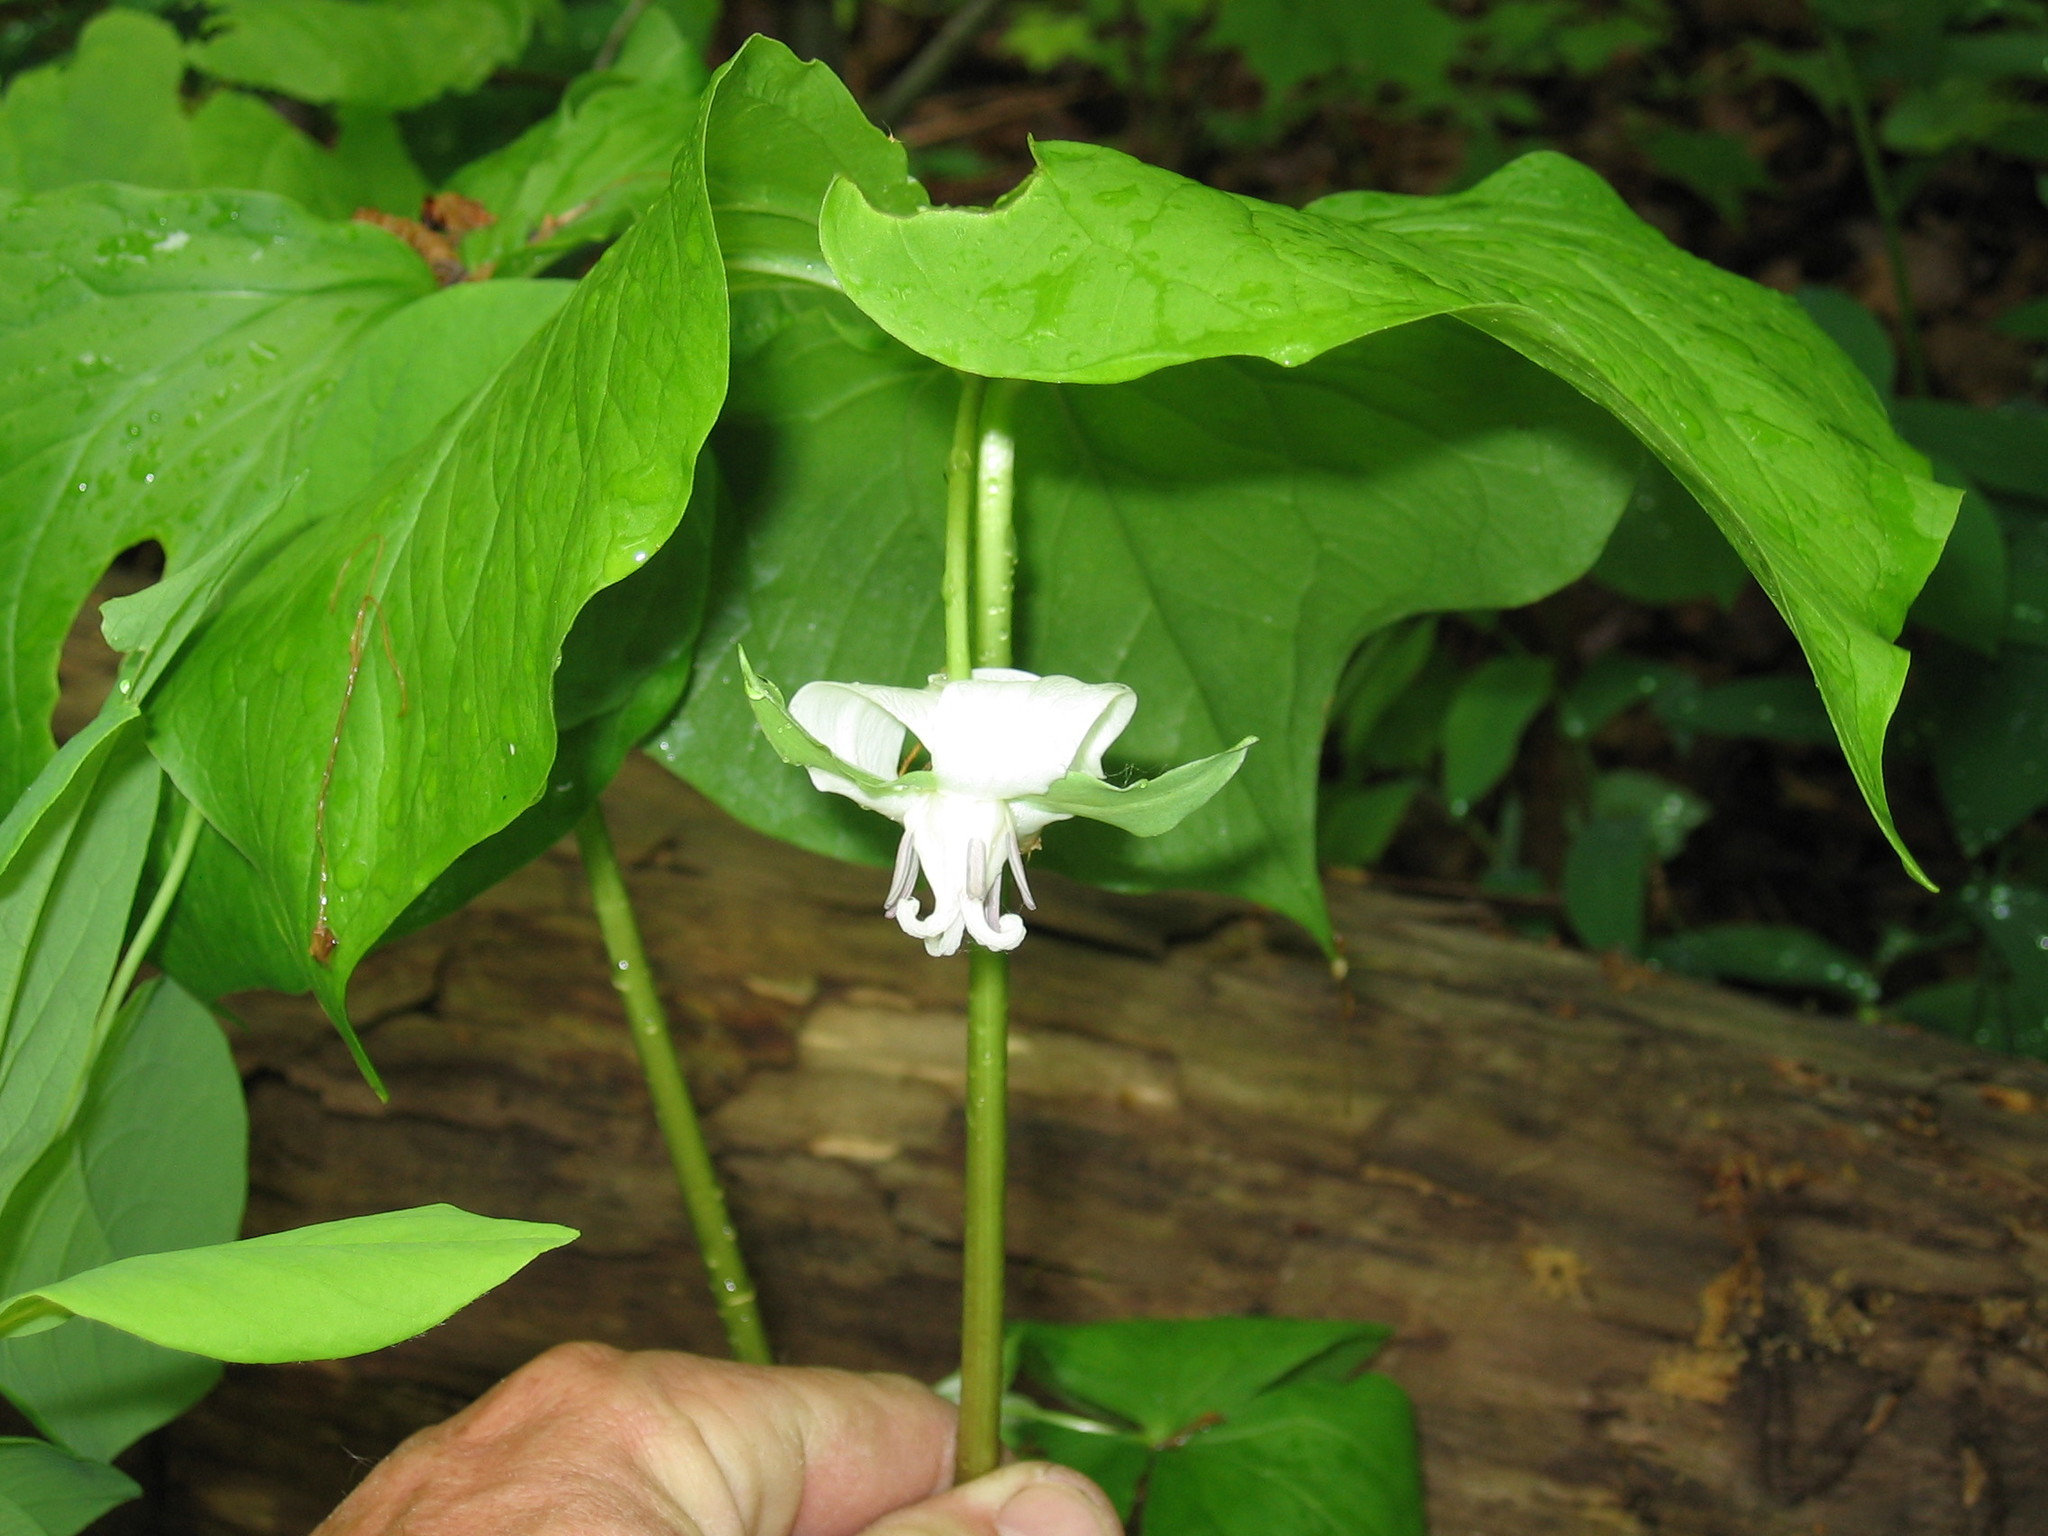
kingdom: Plantae
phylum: Tracheophyta
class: Liliopsida
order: Liliales
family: Melanthiaceae
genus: Trillium
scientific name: Trillium cernuum
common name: Nodding trillium
